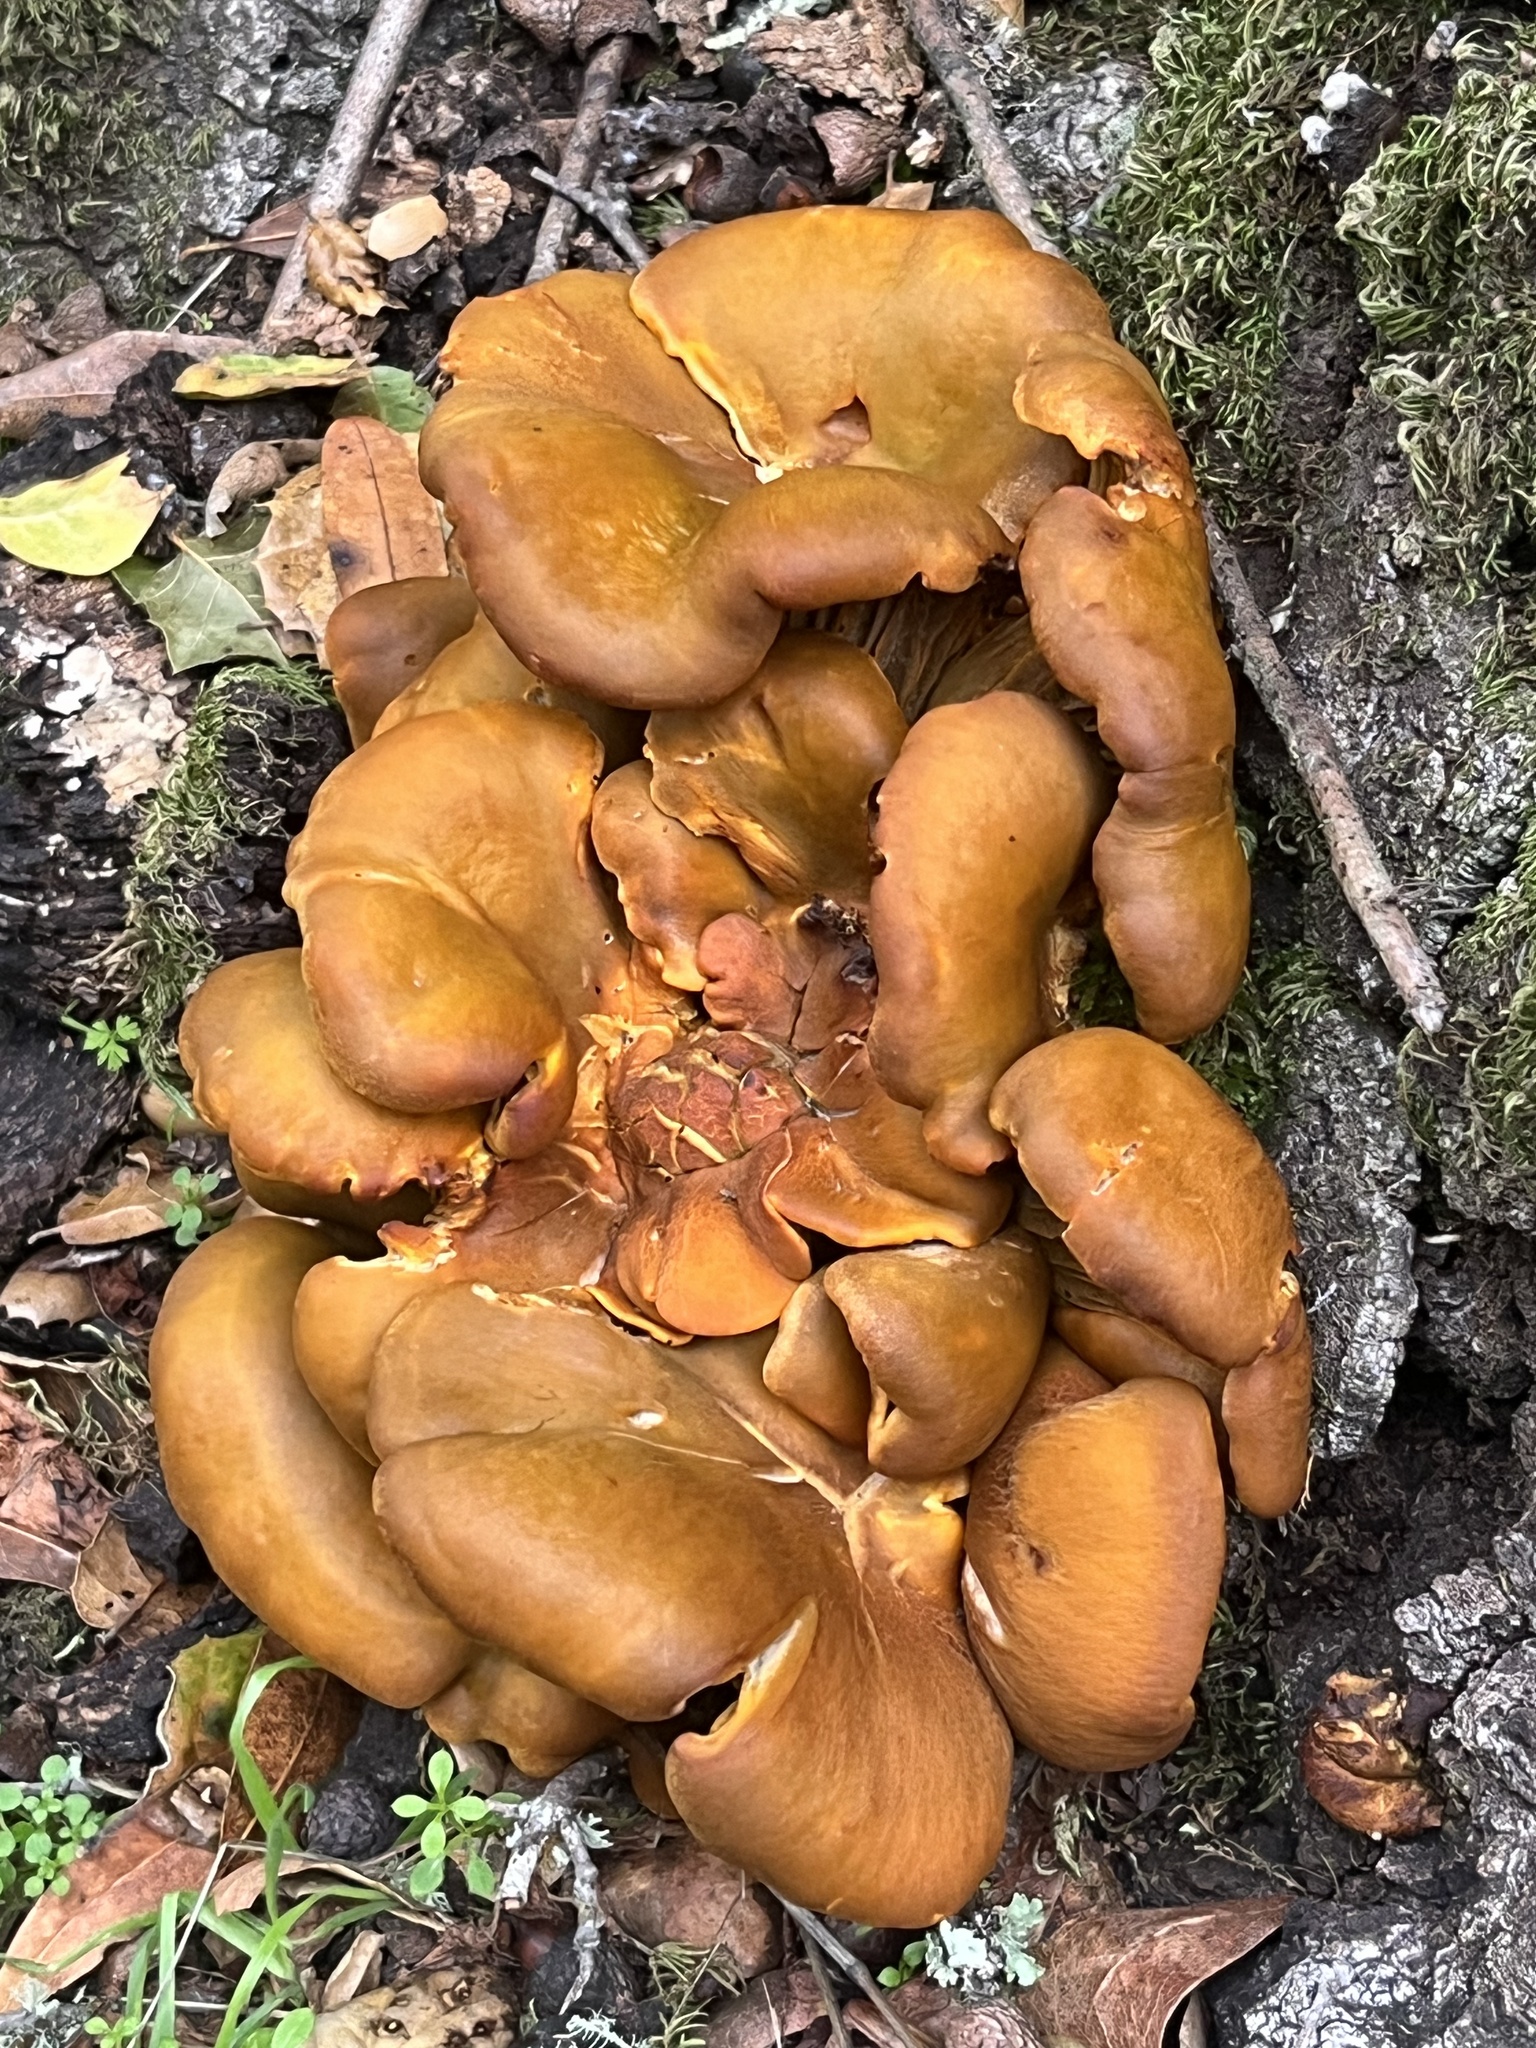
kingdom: Fungi
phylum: Basidiomycota
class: Agaricomycetes
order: Agaricales
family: Omphalotaceae
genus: Omphalotus
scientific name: Omphalotus olivascens
